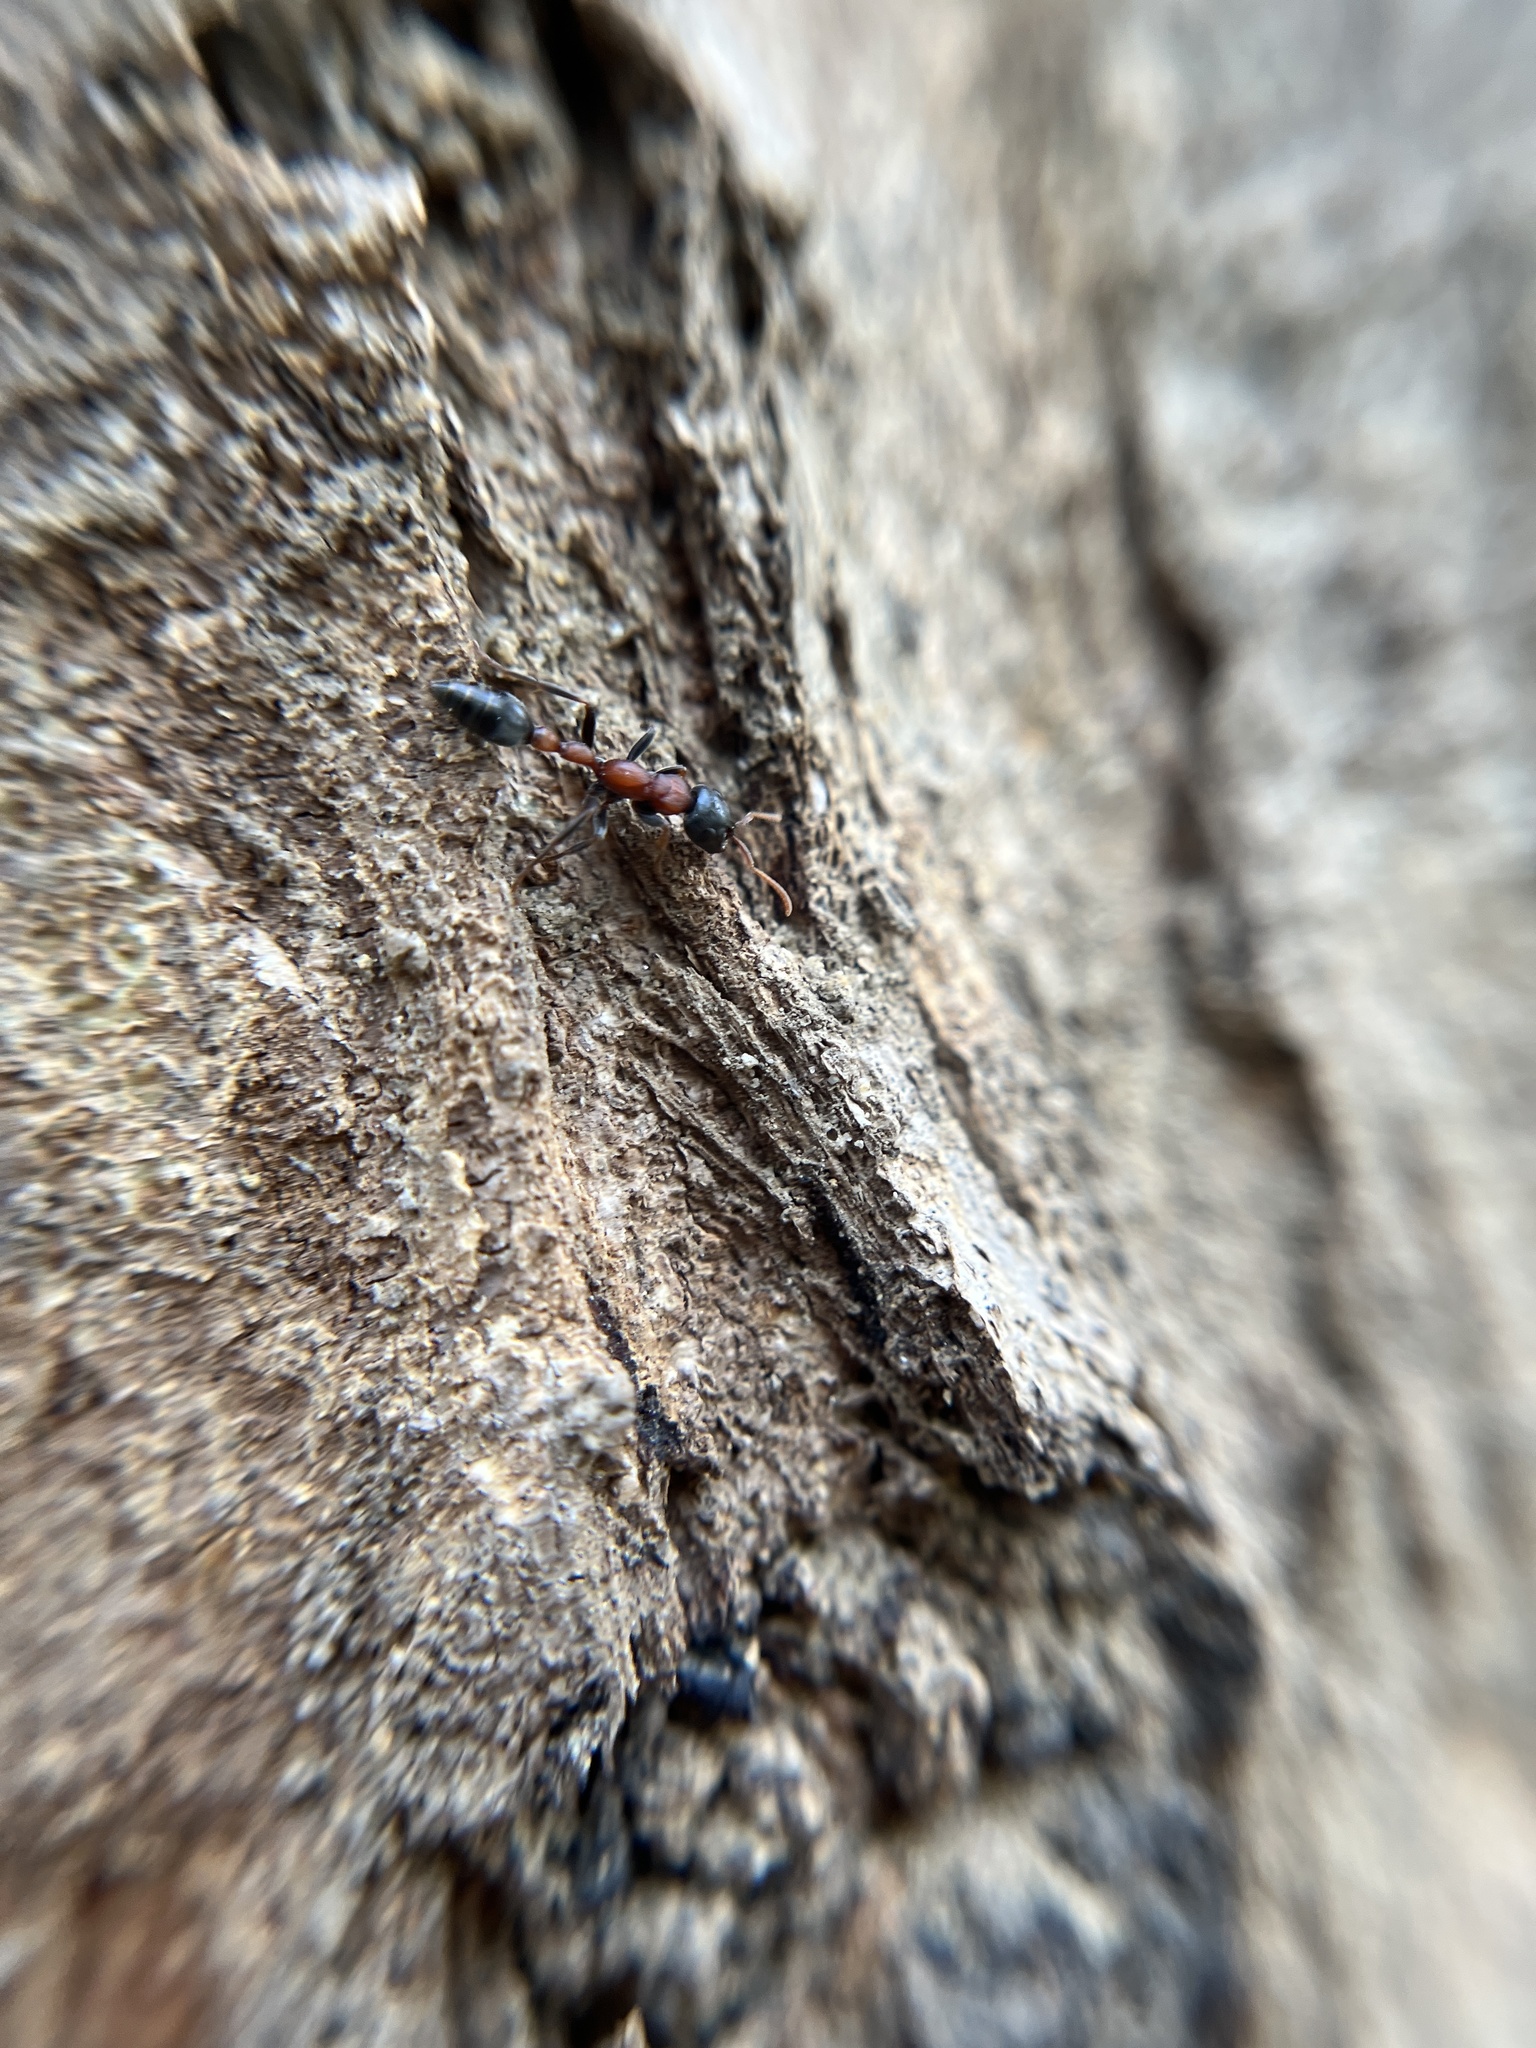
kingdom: Animalia
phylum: Arthropoda
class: Insecta
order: Hymenoptera
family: Formicidae
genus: Tetraponera
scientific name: Tetraponera rufonigra
